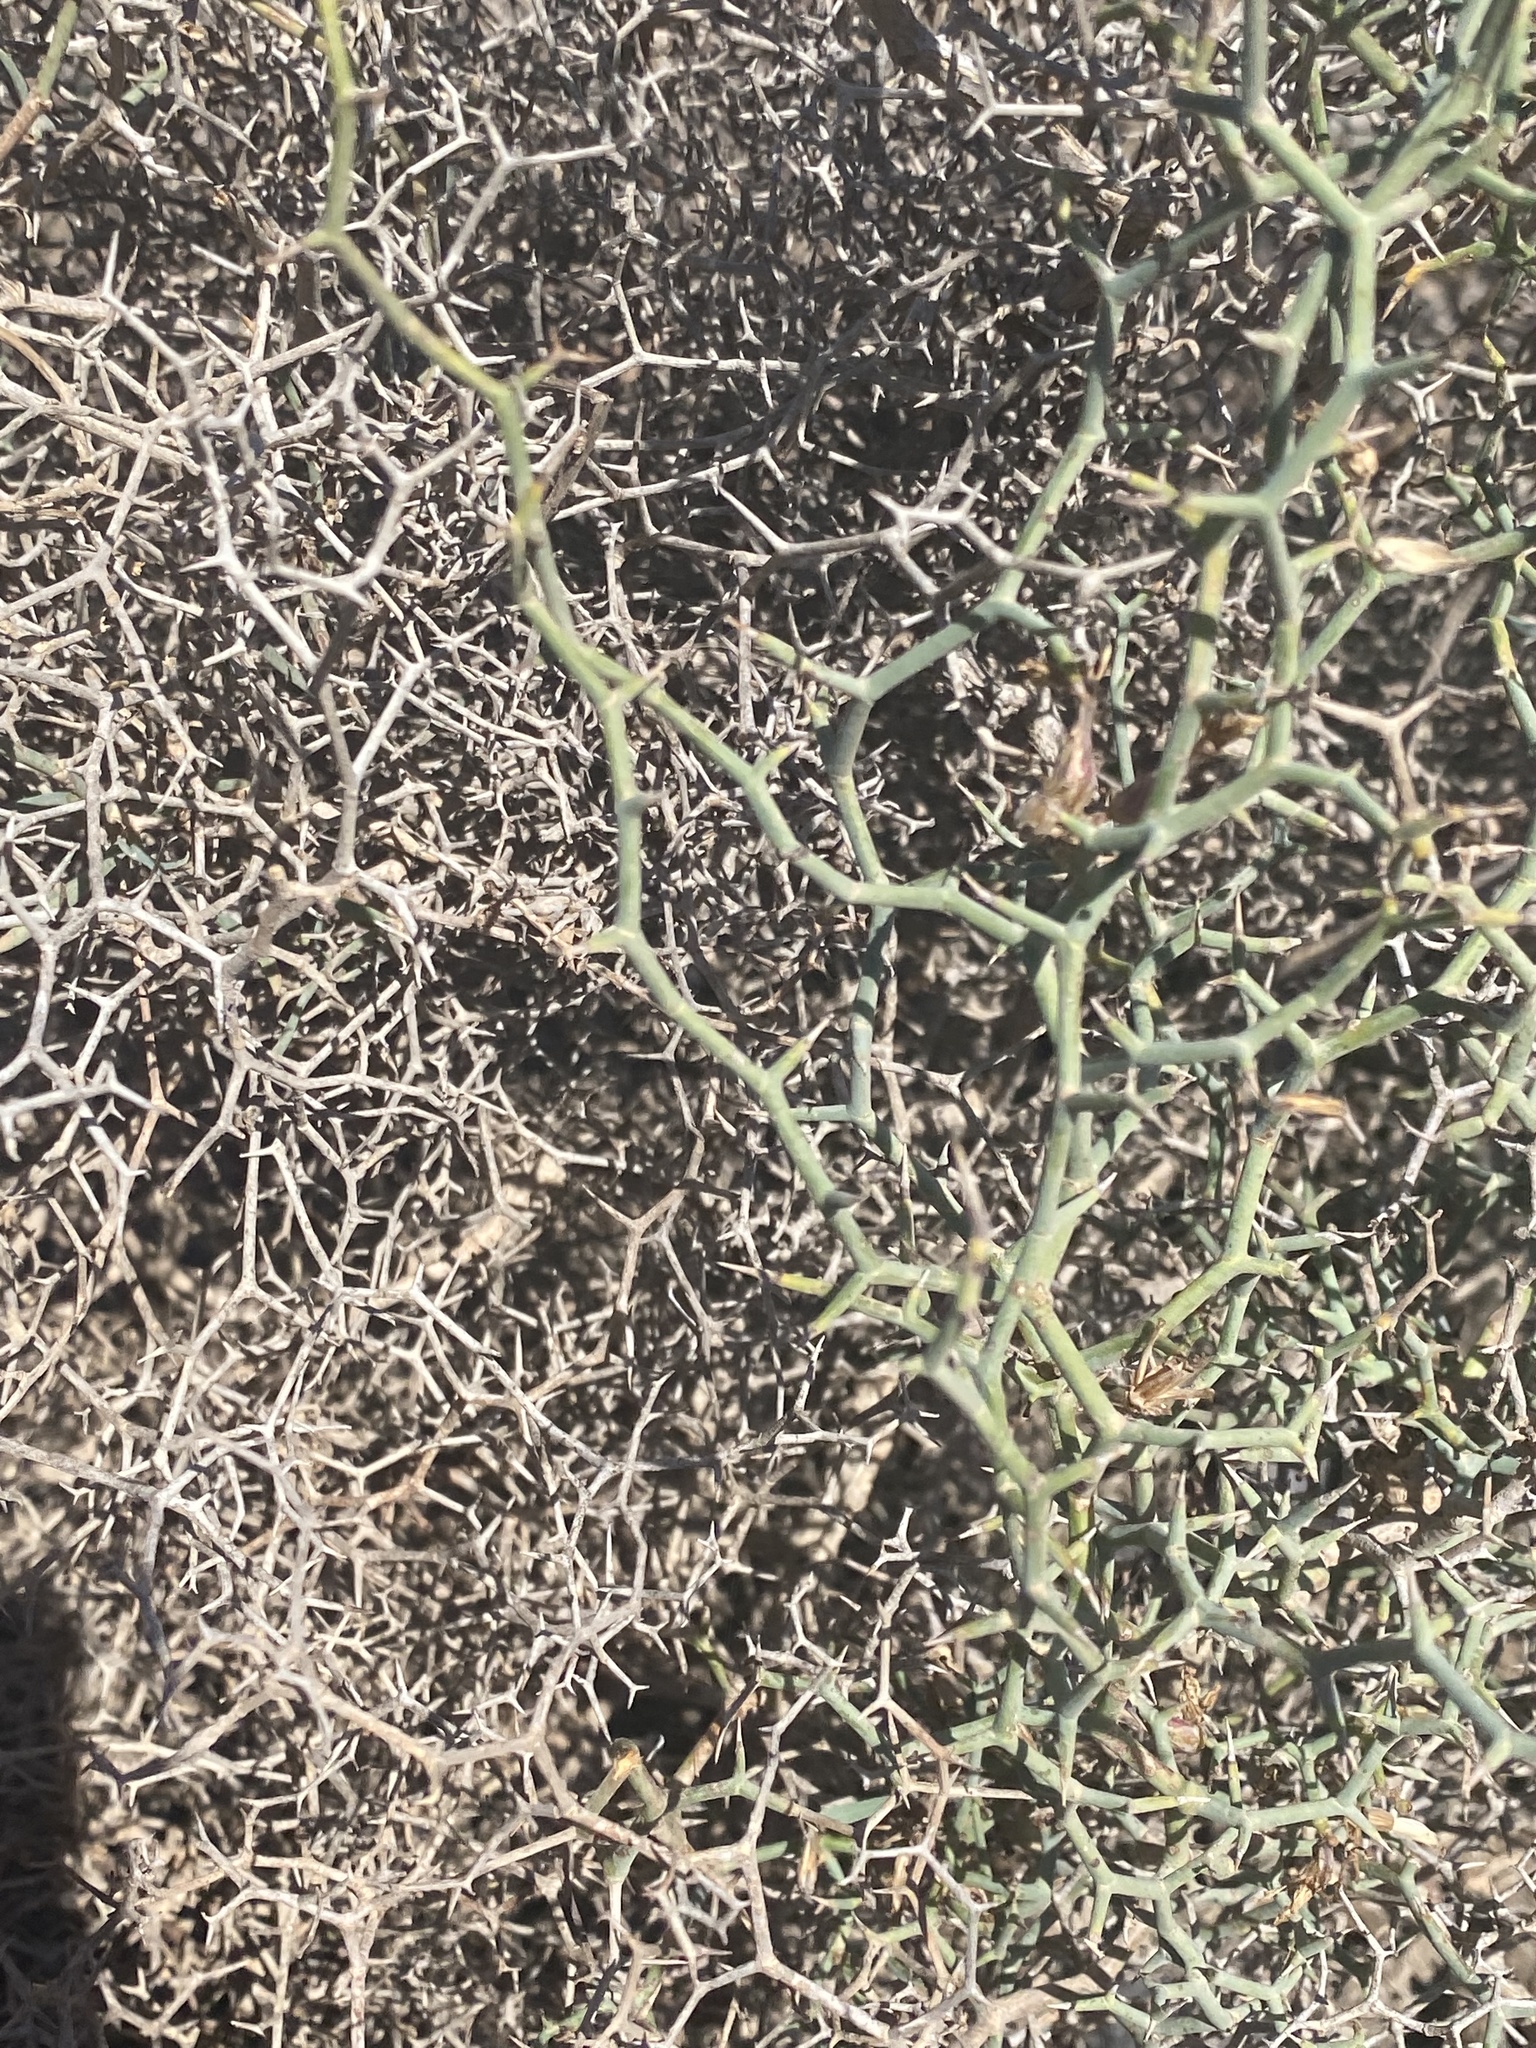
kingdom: Plantae
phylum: Tracheophyta
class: Magnoliopsida
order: Asterales
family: Asteraceae
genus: Launaea
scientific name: Launaea arborescens
